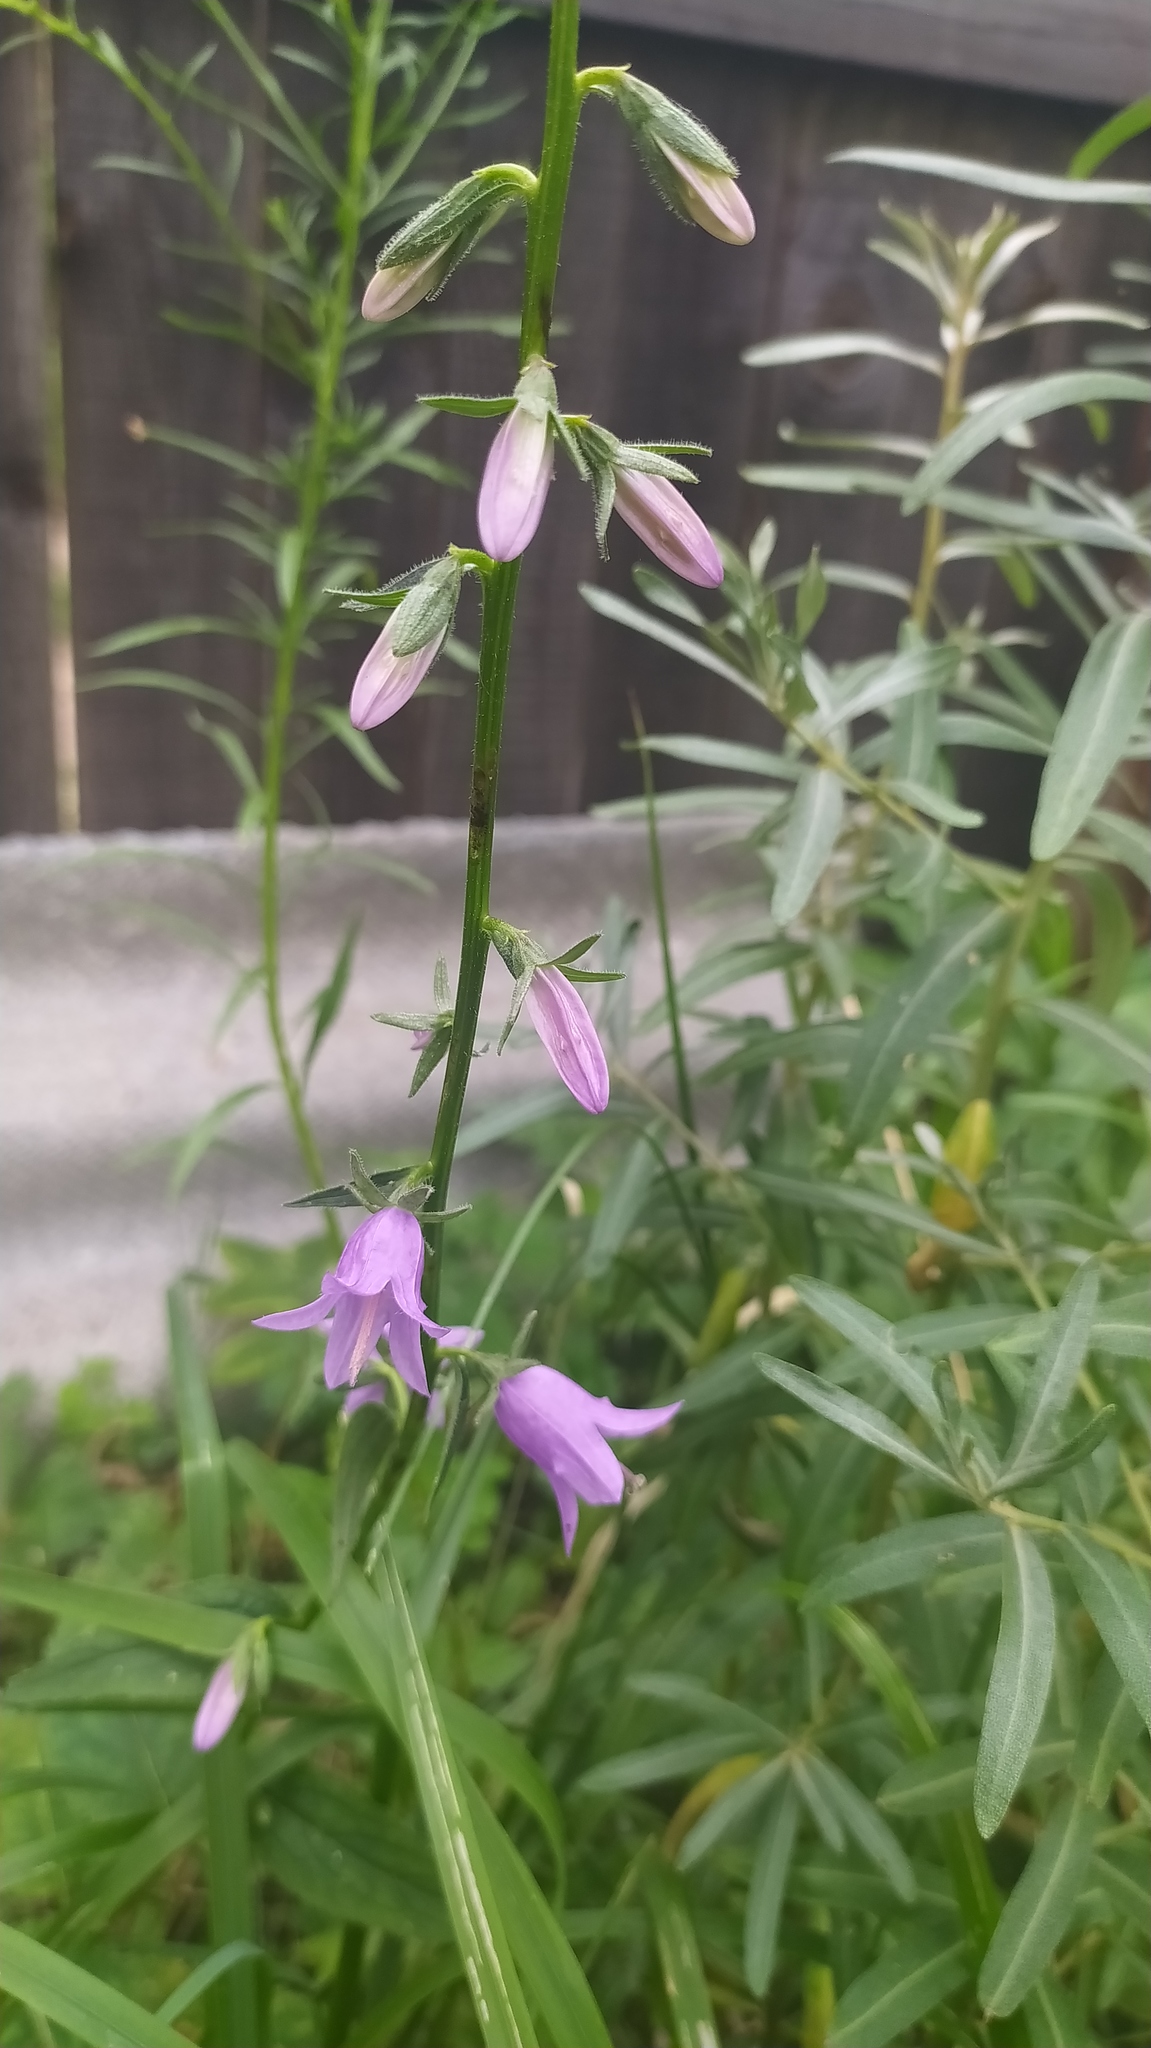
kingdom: Plantae
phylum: Tracheophyta
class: Magnoliopsida
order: Asterales
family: Campanulaceae
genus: Campanula
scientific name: Campanula rapunculoides
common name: Creeping bellflower
